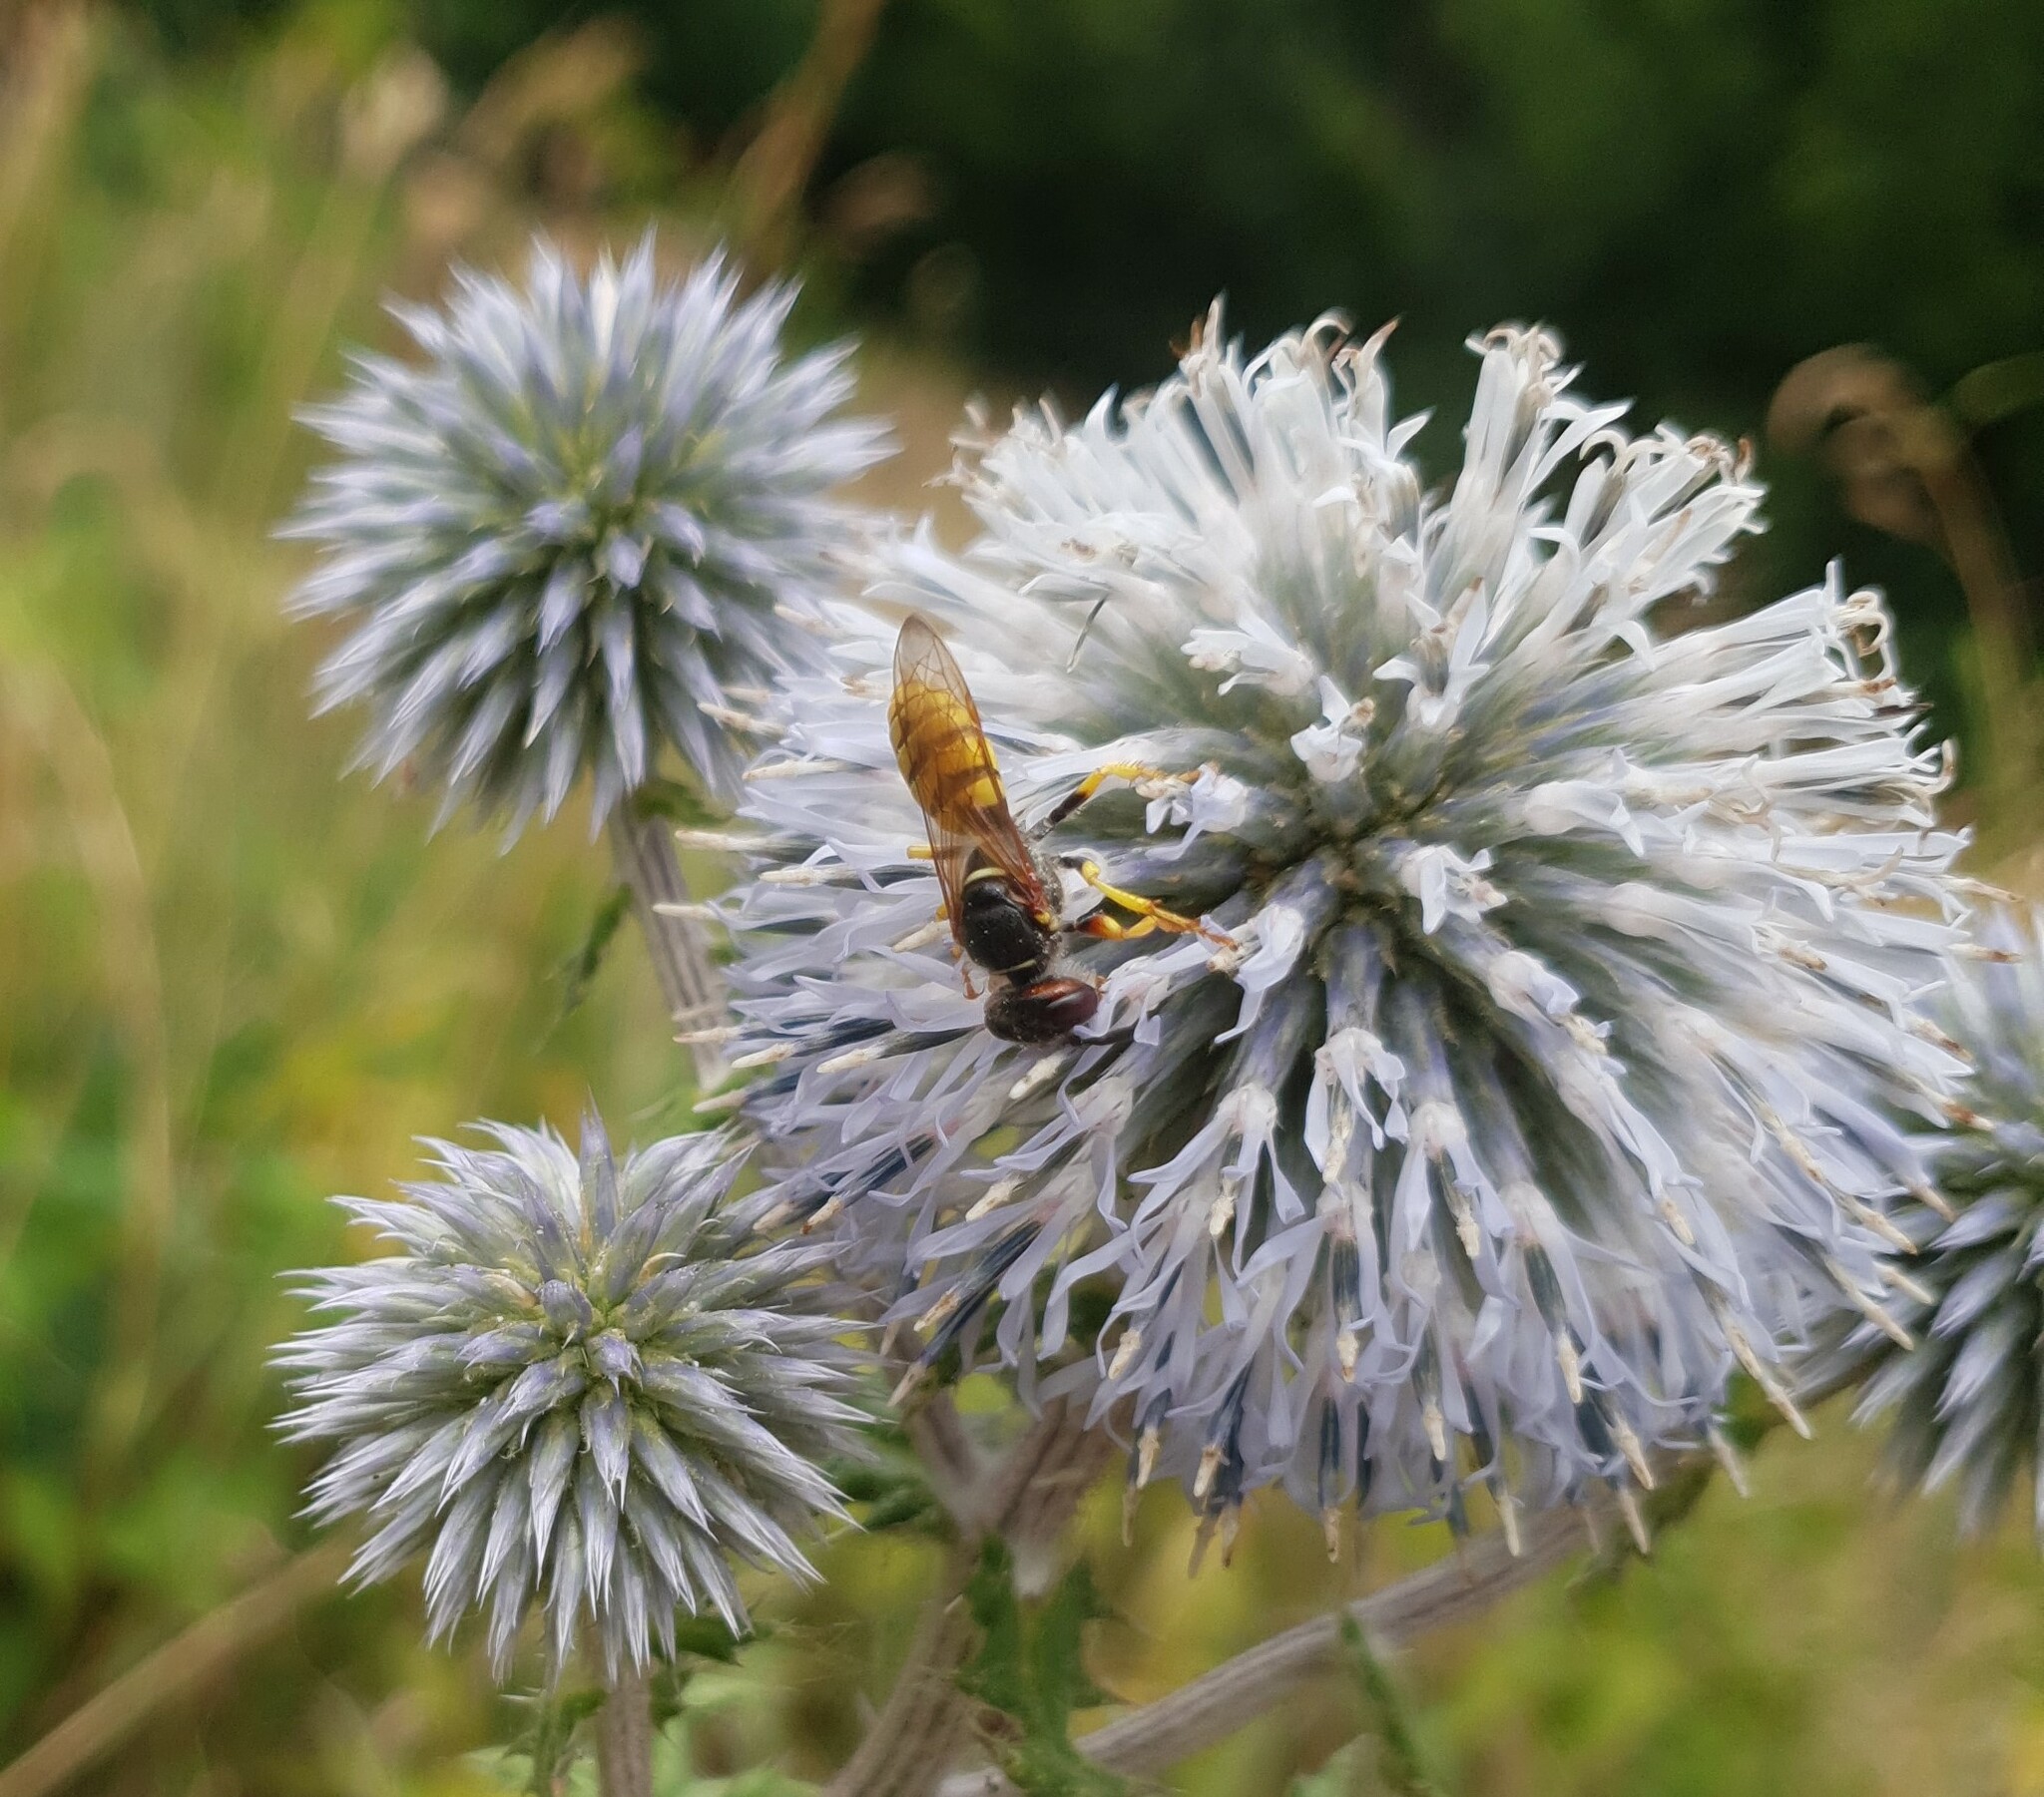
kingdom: Animalia
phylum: Arthropoda
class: Insecta
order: Hymenoptera
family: Crabronidae
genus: Philanthus
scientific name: Philanthus triangulum
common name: Bee wolf
